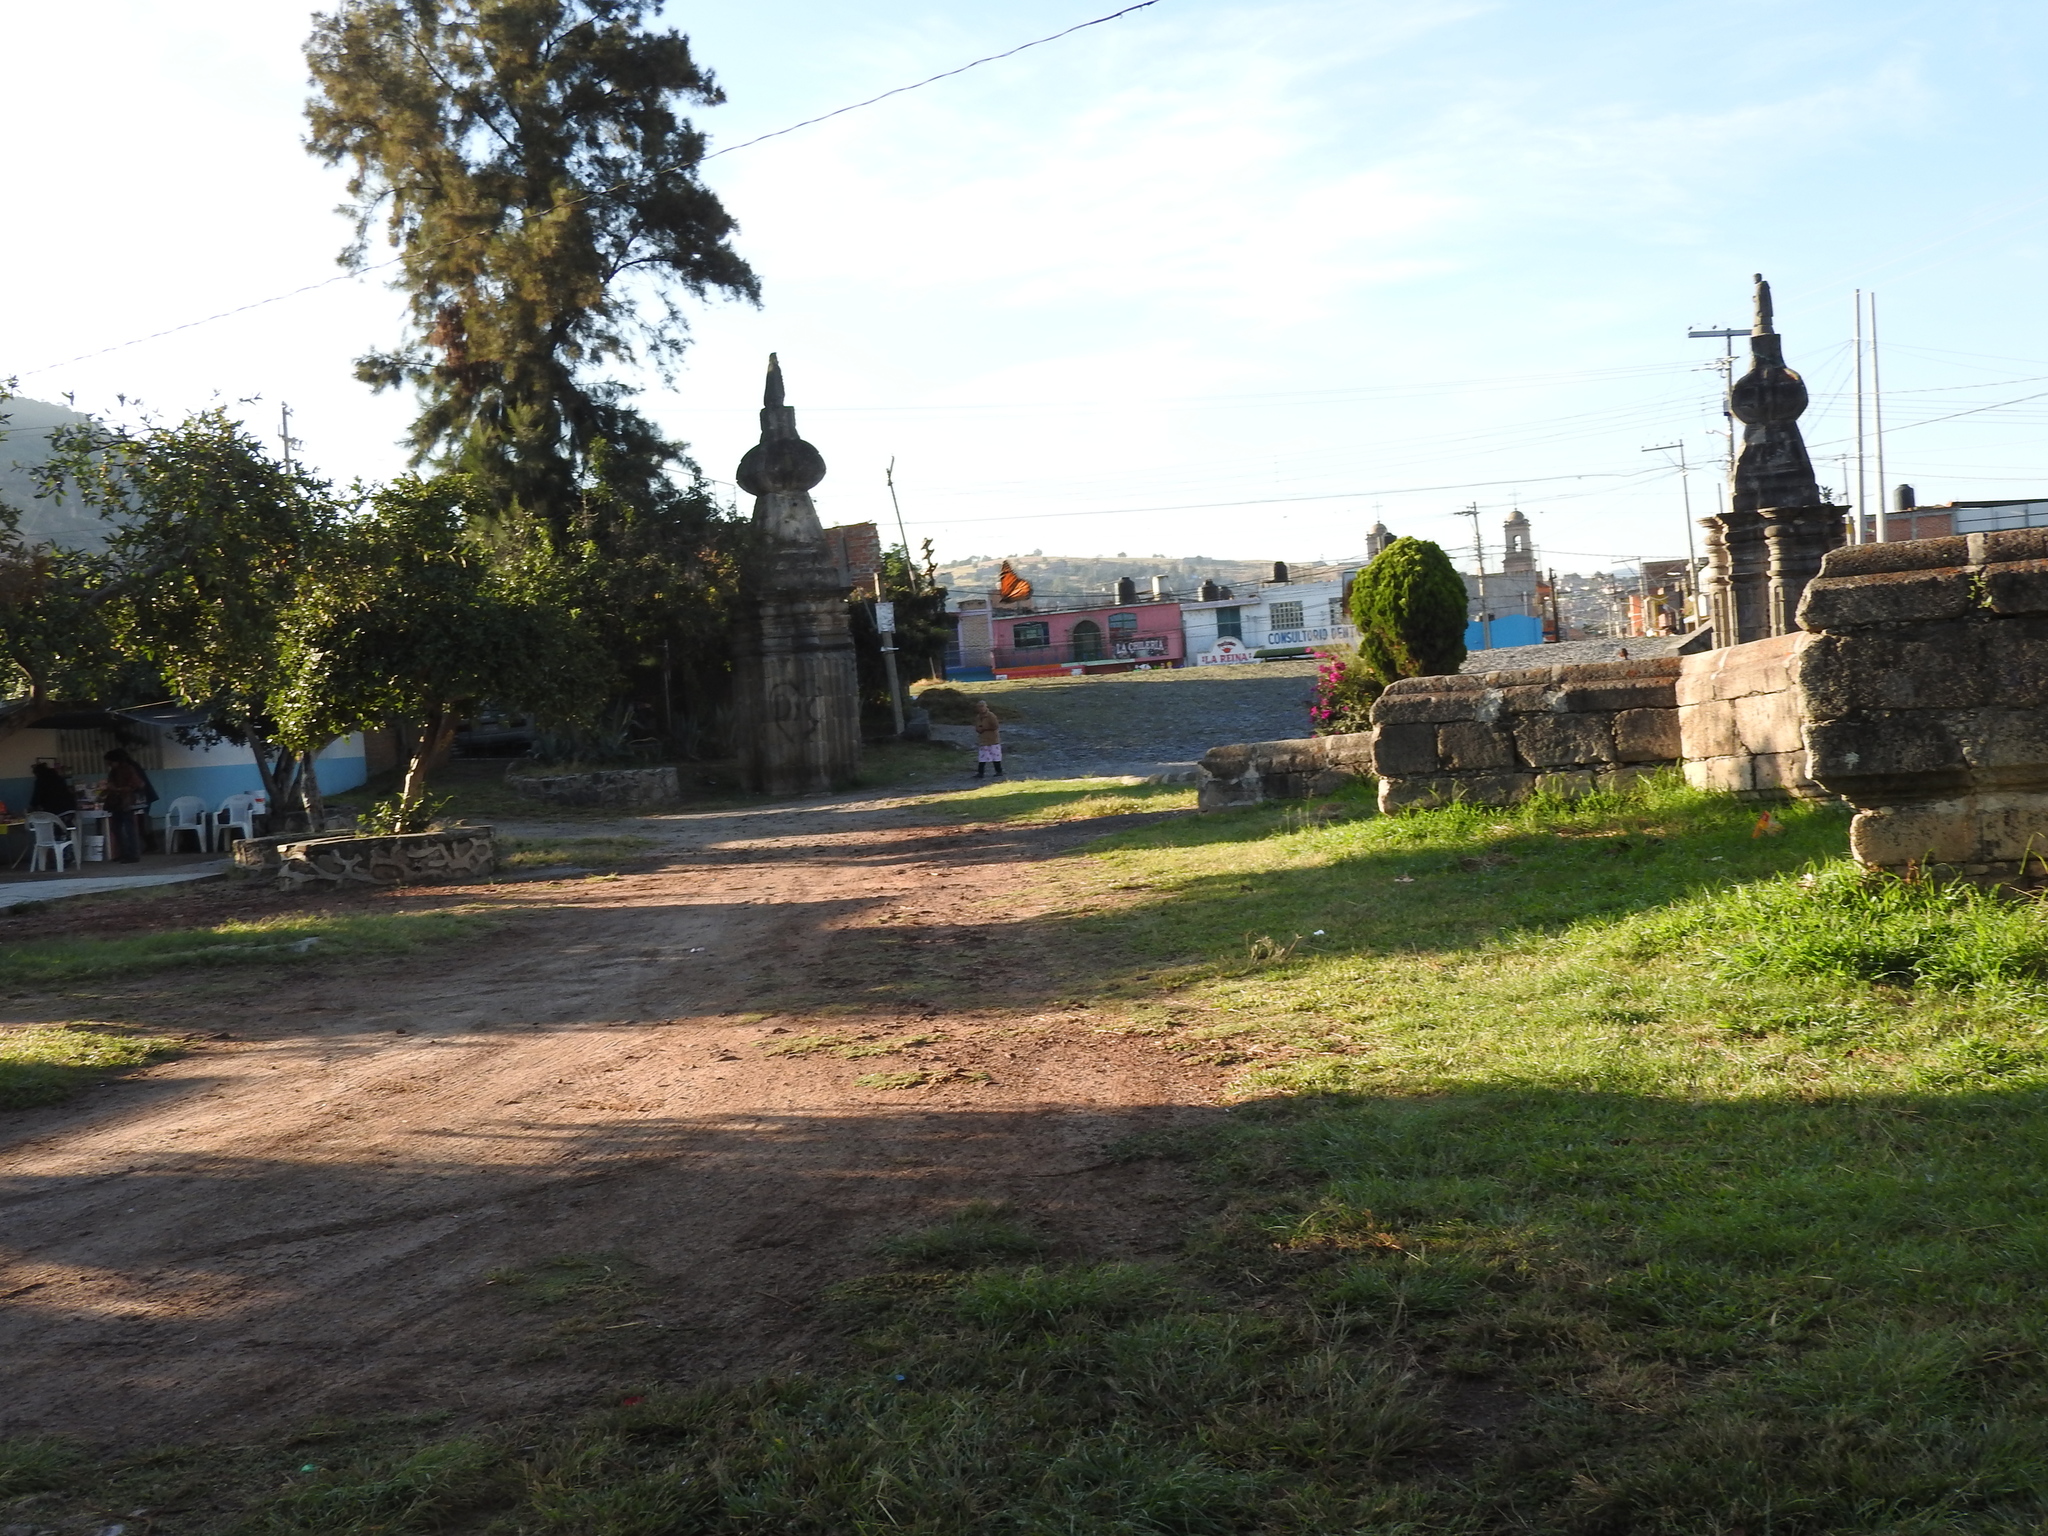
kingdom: Animalia
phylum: Arthropoda
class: Insecta
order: Lepidoptera
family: Nymphalidae
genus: Danaus
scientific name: Danaus plexippus
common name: Monarch
